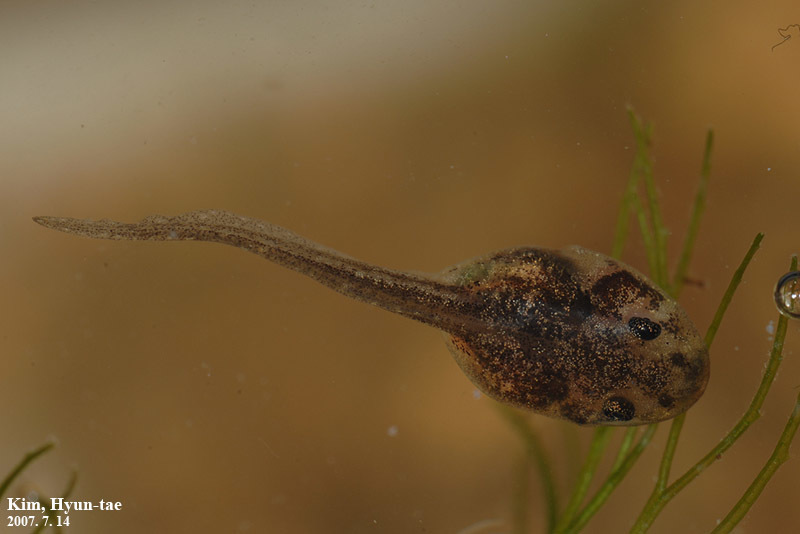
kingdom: Animalia
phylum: Chordata
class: Amphibia
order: Anura
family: Ranidae
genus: Pelophylax
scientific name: Pelophylax nigromaculatus
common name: Black-spotted pond frog
